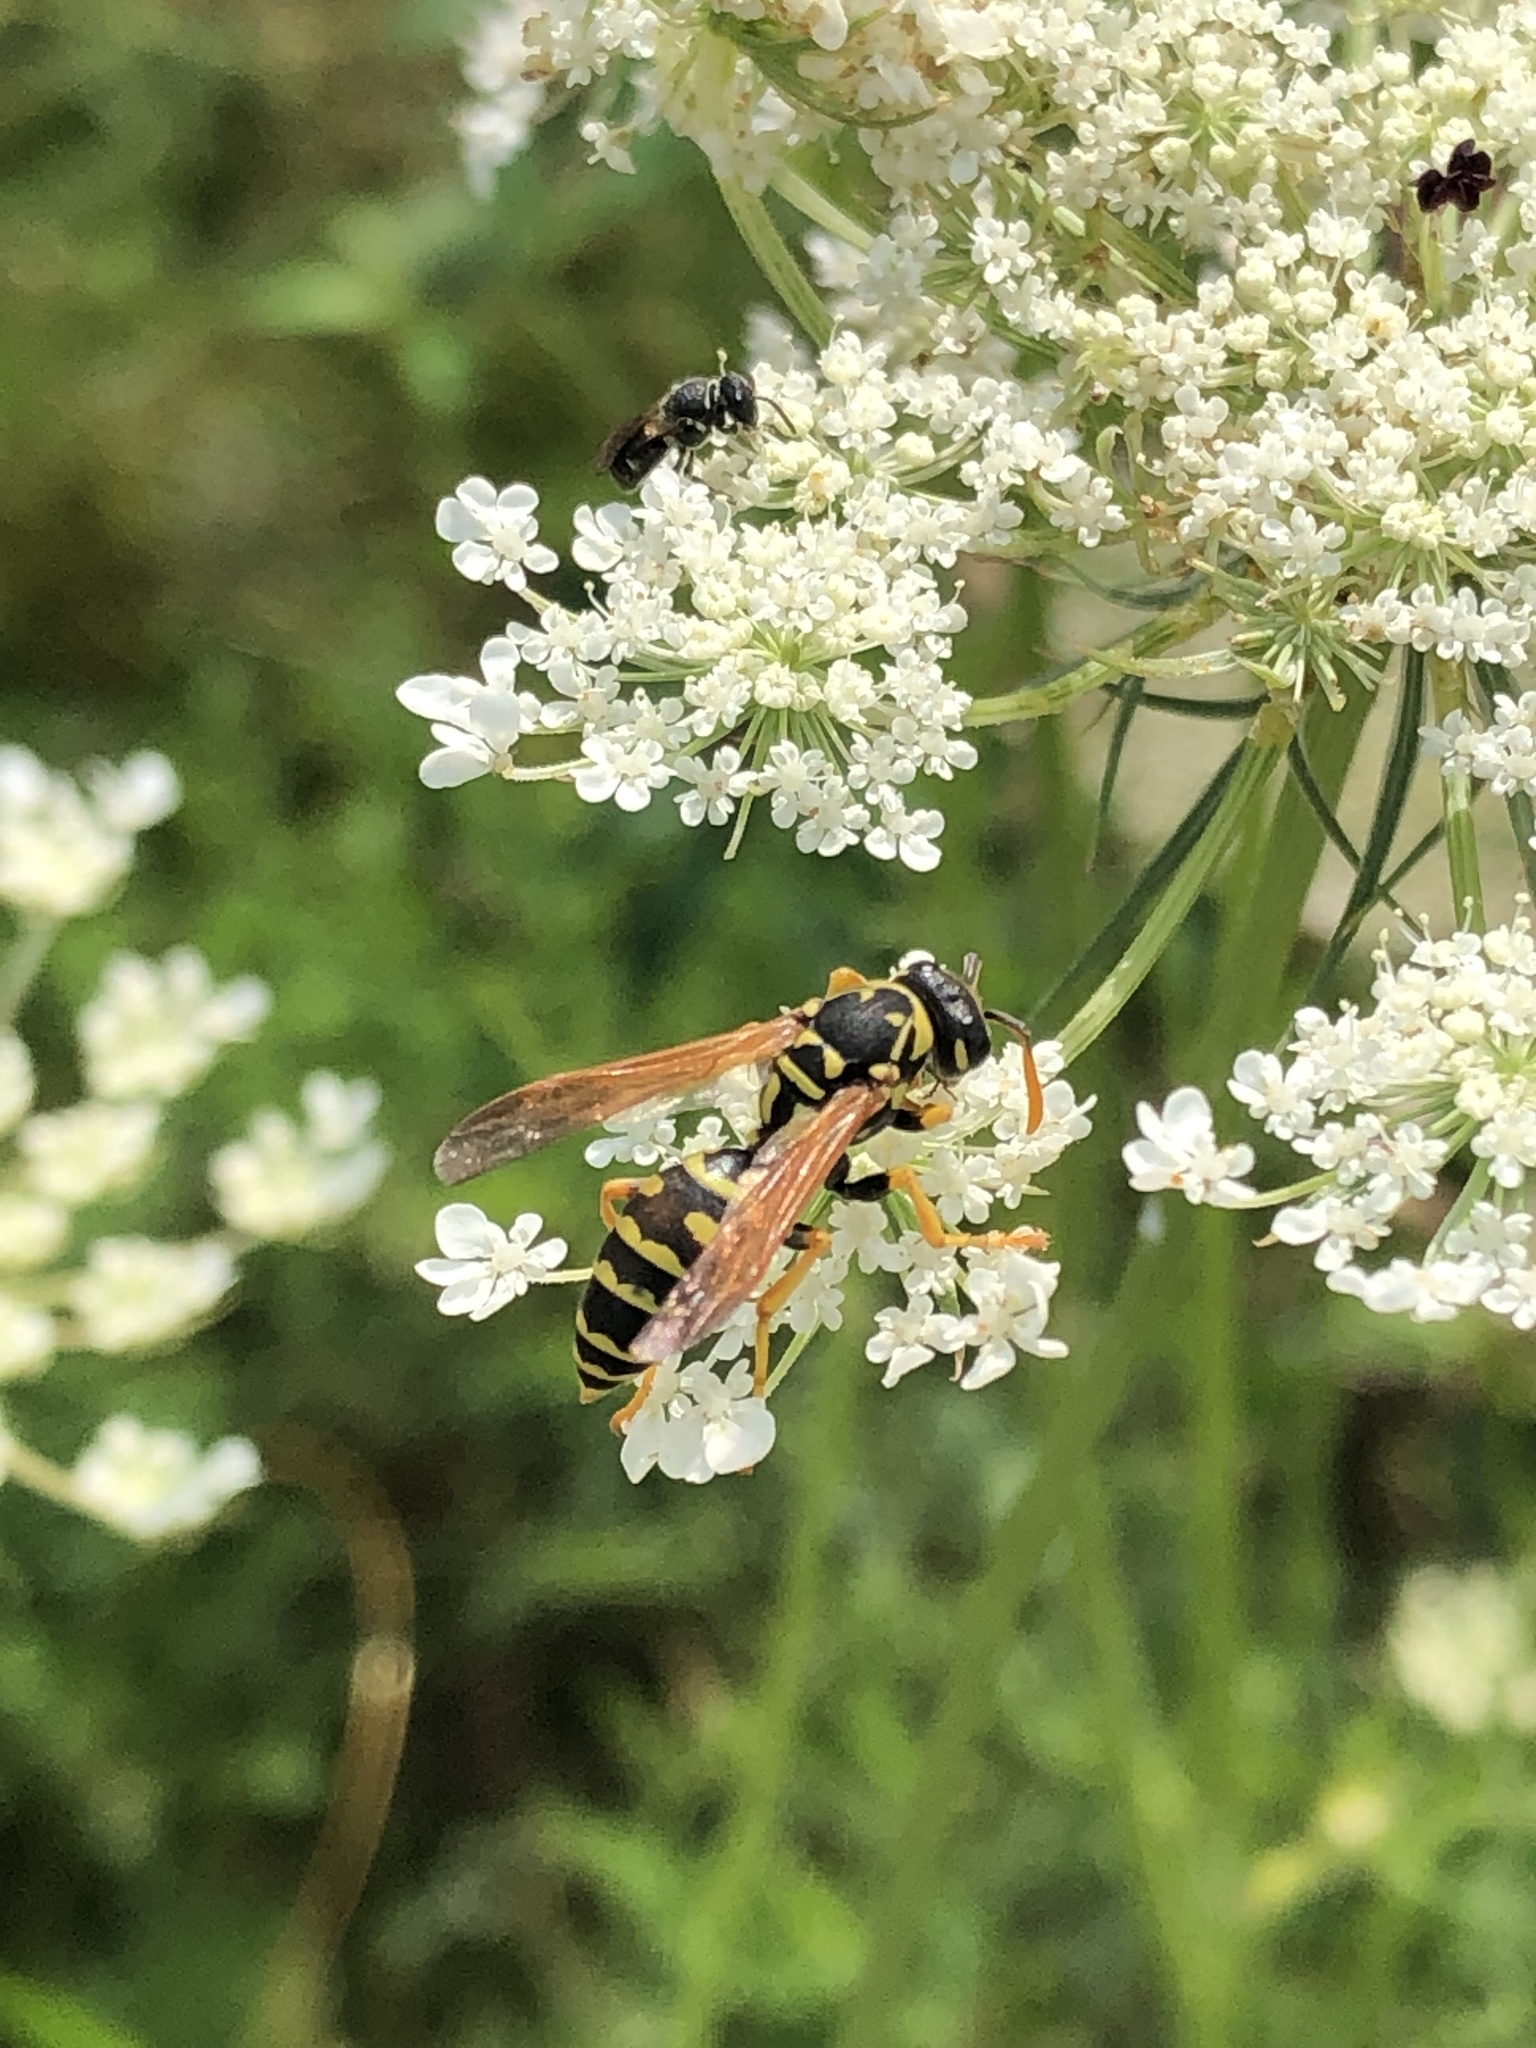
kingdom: Animalia
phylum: Arthropoda
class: Insecta
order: Hymenoptera
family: Eumenidae
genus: Polistes
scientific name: Polistes dominula
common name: Paper wasp
